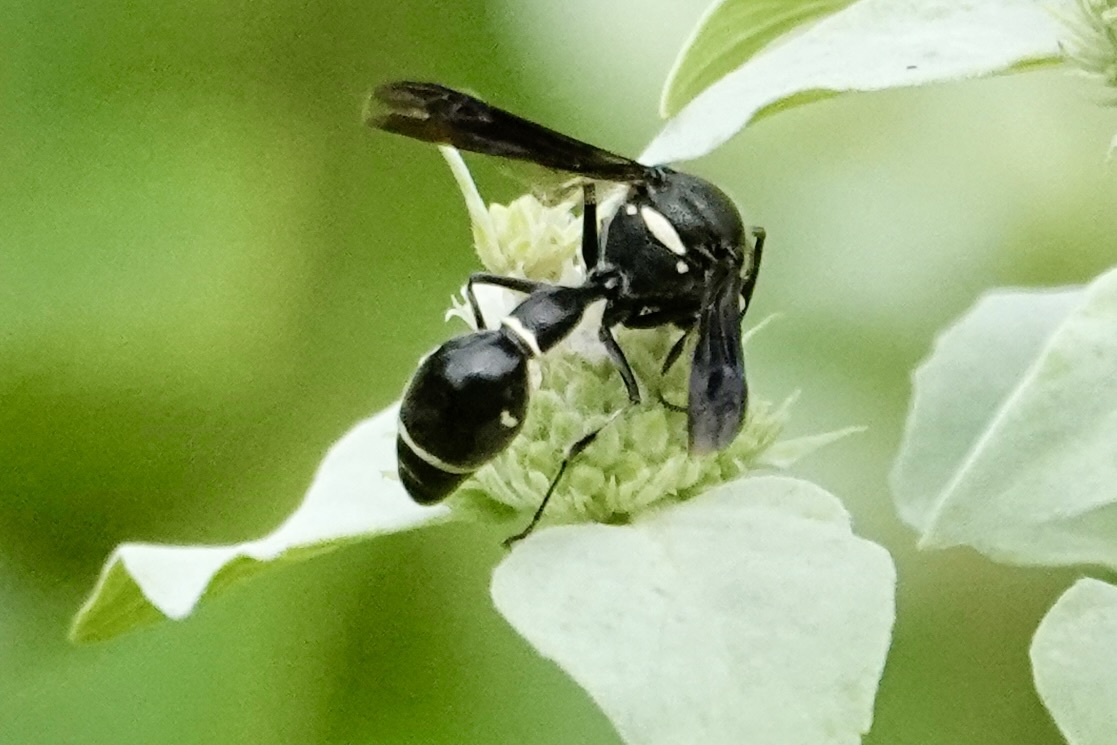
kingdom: Animalia
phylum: Arthropoda
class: Insecta
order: Hymenoptera
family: Vespidae
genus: Eumenes
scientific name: Eumenes fraternus
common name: Fraternal potter wasp
